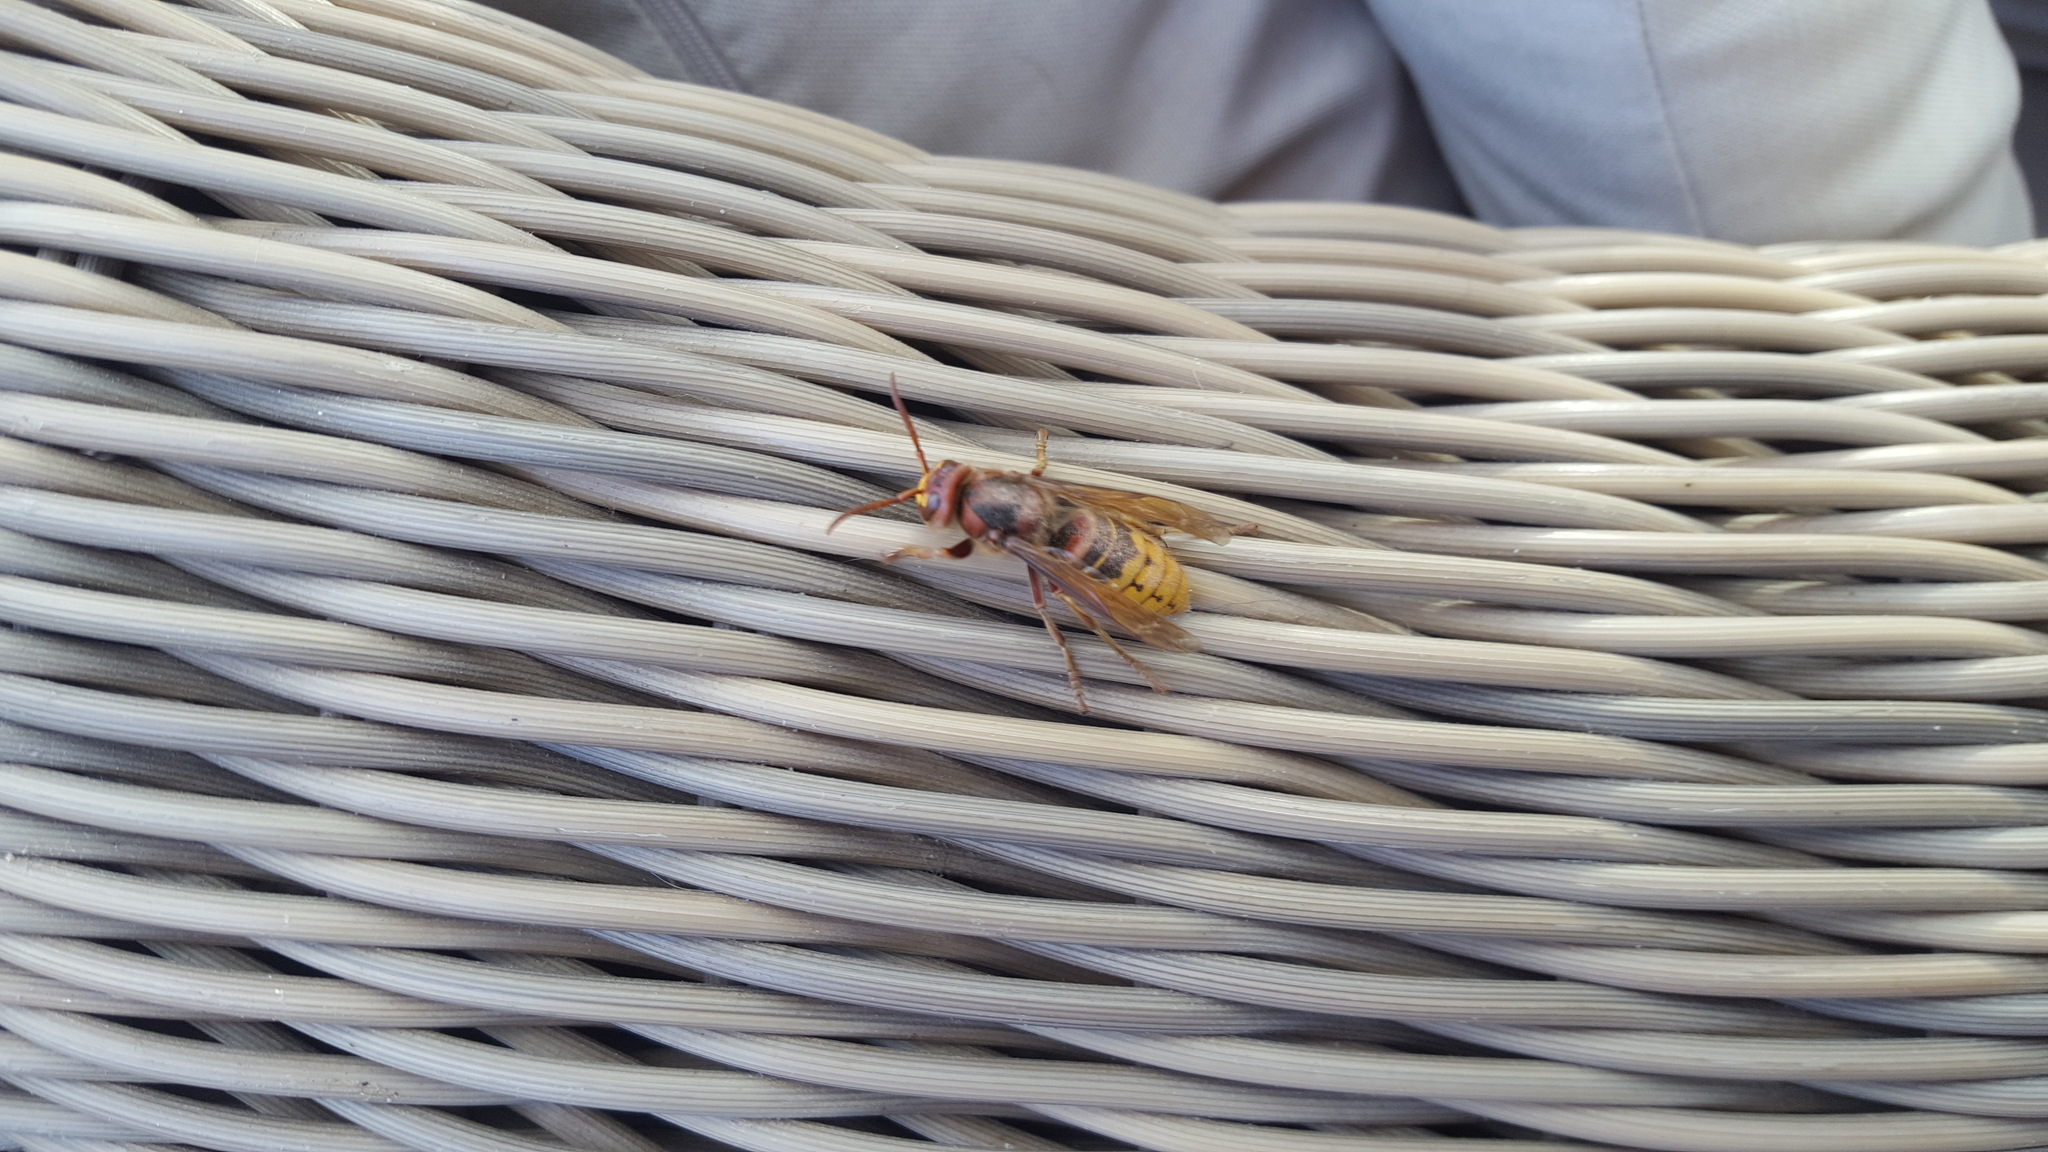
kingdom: Animalia
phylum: Arthropoda
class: Insecta
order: Hymenoptera
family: Vespidae
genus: Vespa
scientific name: Vespa crabro
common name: Hornet
